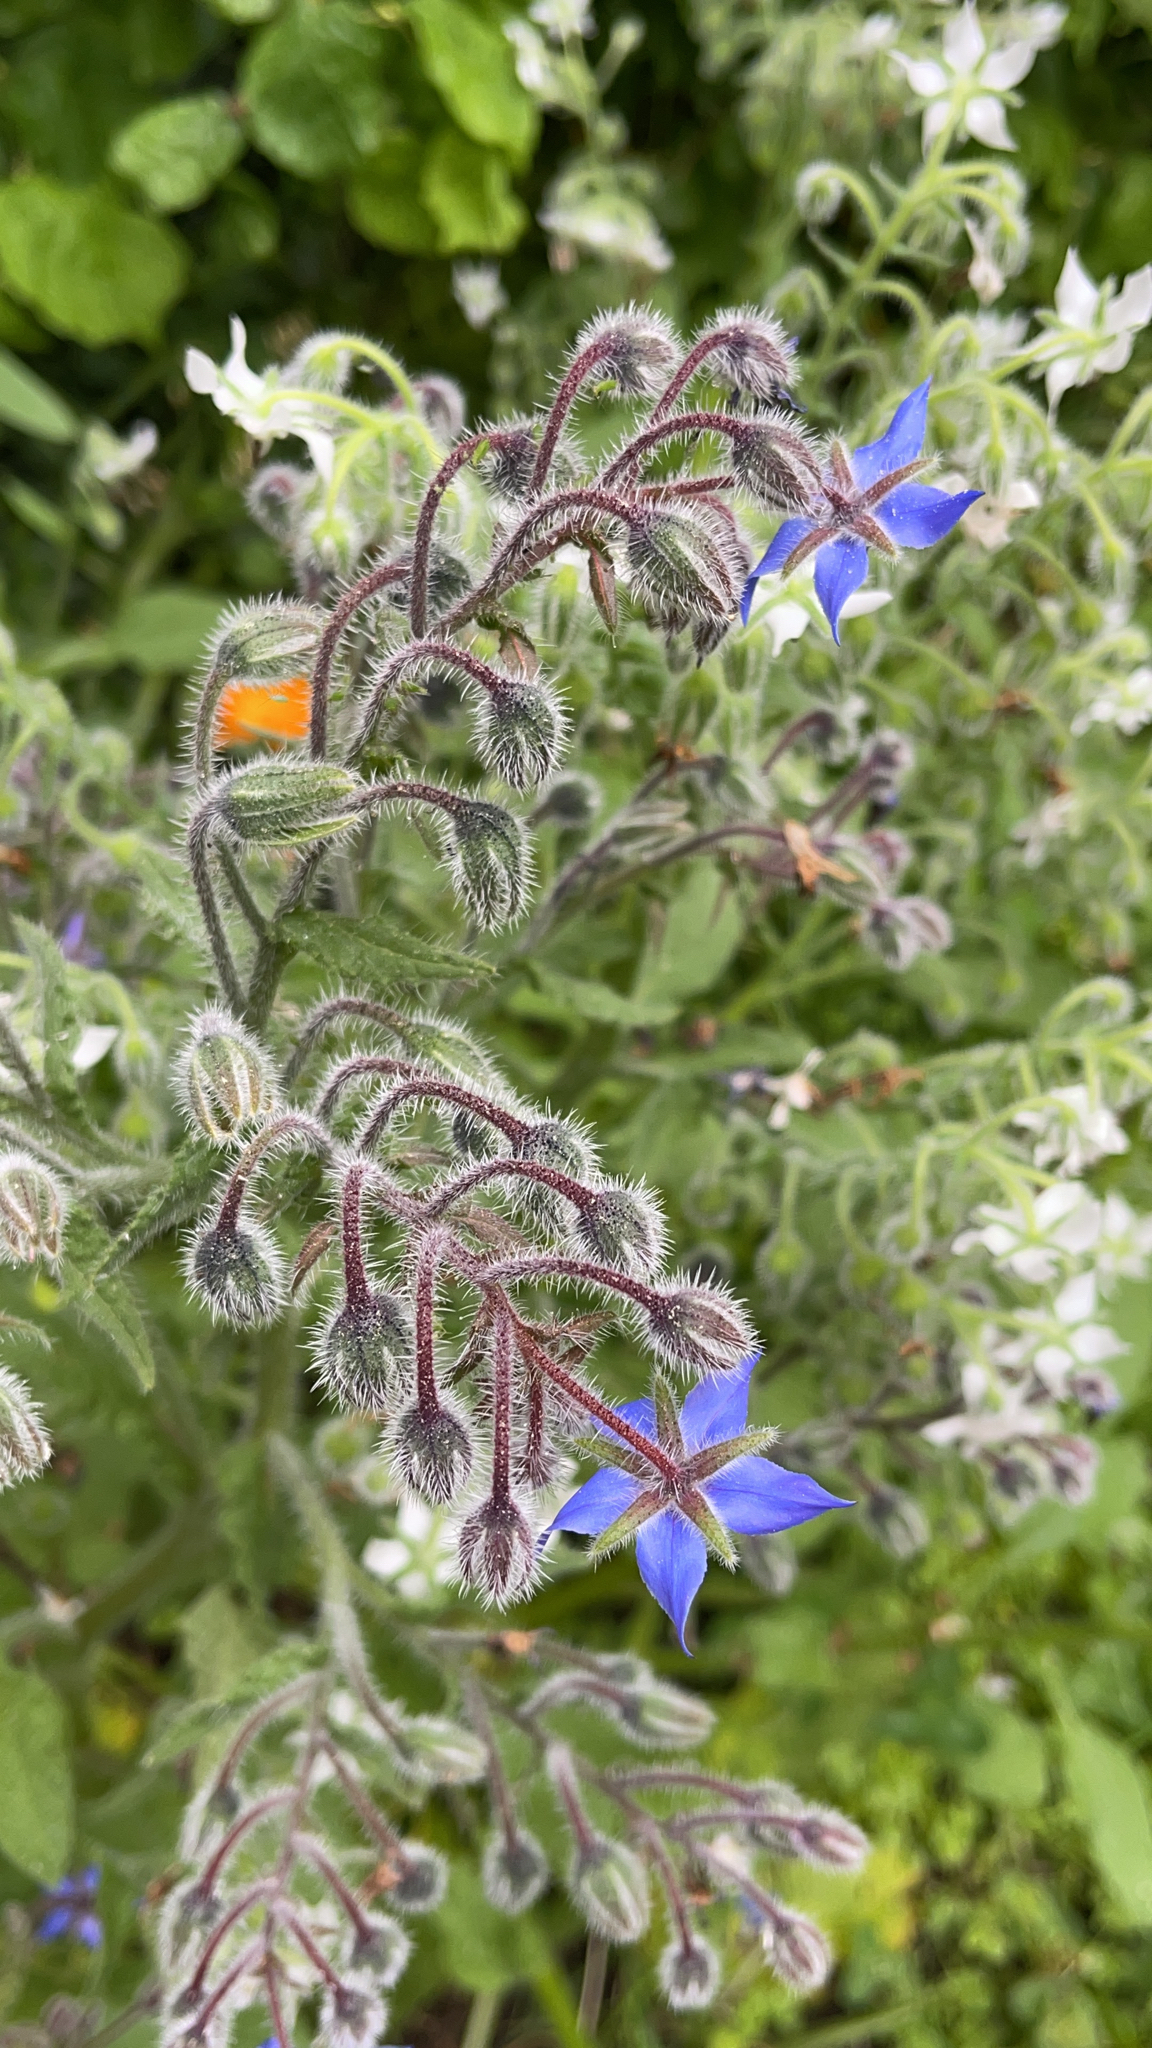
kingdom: Plantae
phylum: Tracheophyta
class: Magnoliopsida
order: Boraginales
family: Boraginaceae
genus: Borago
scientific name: Borago officinalis
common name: Borage
